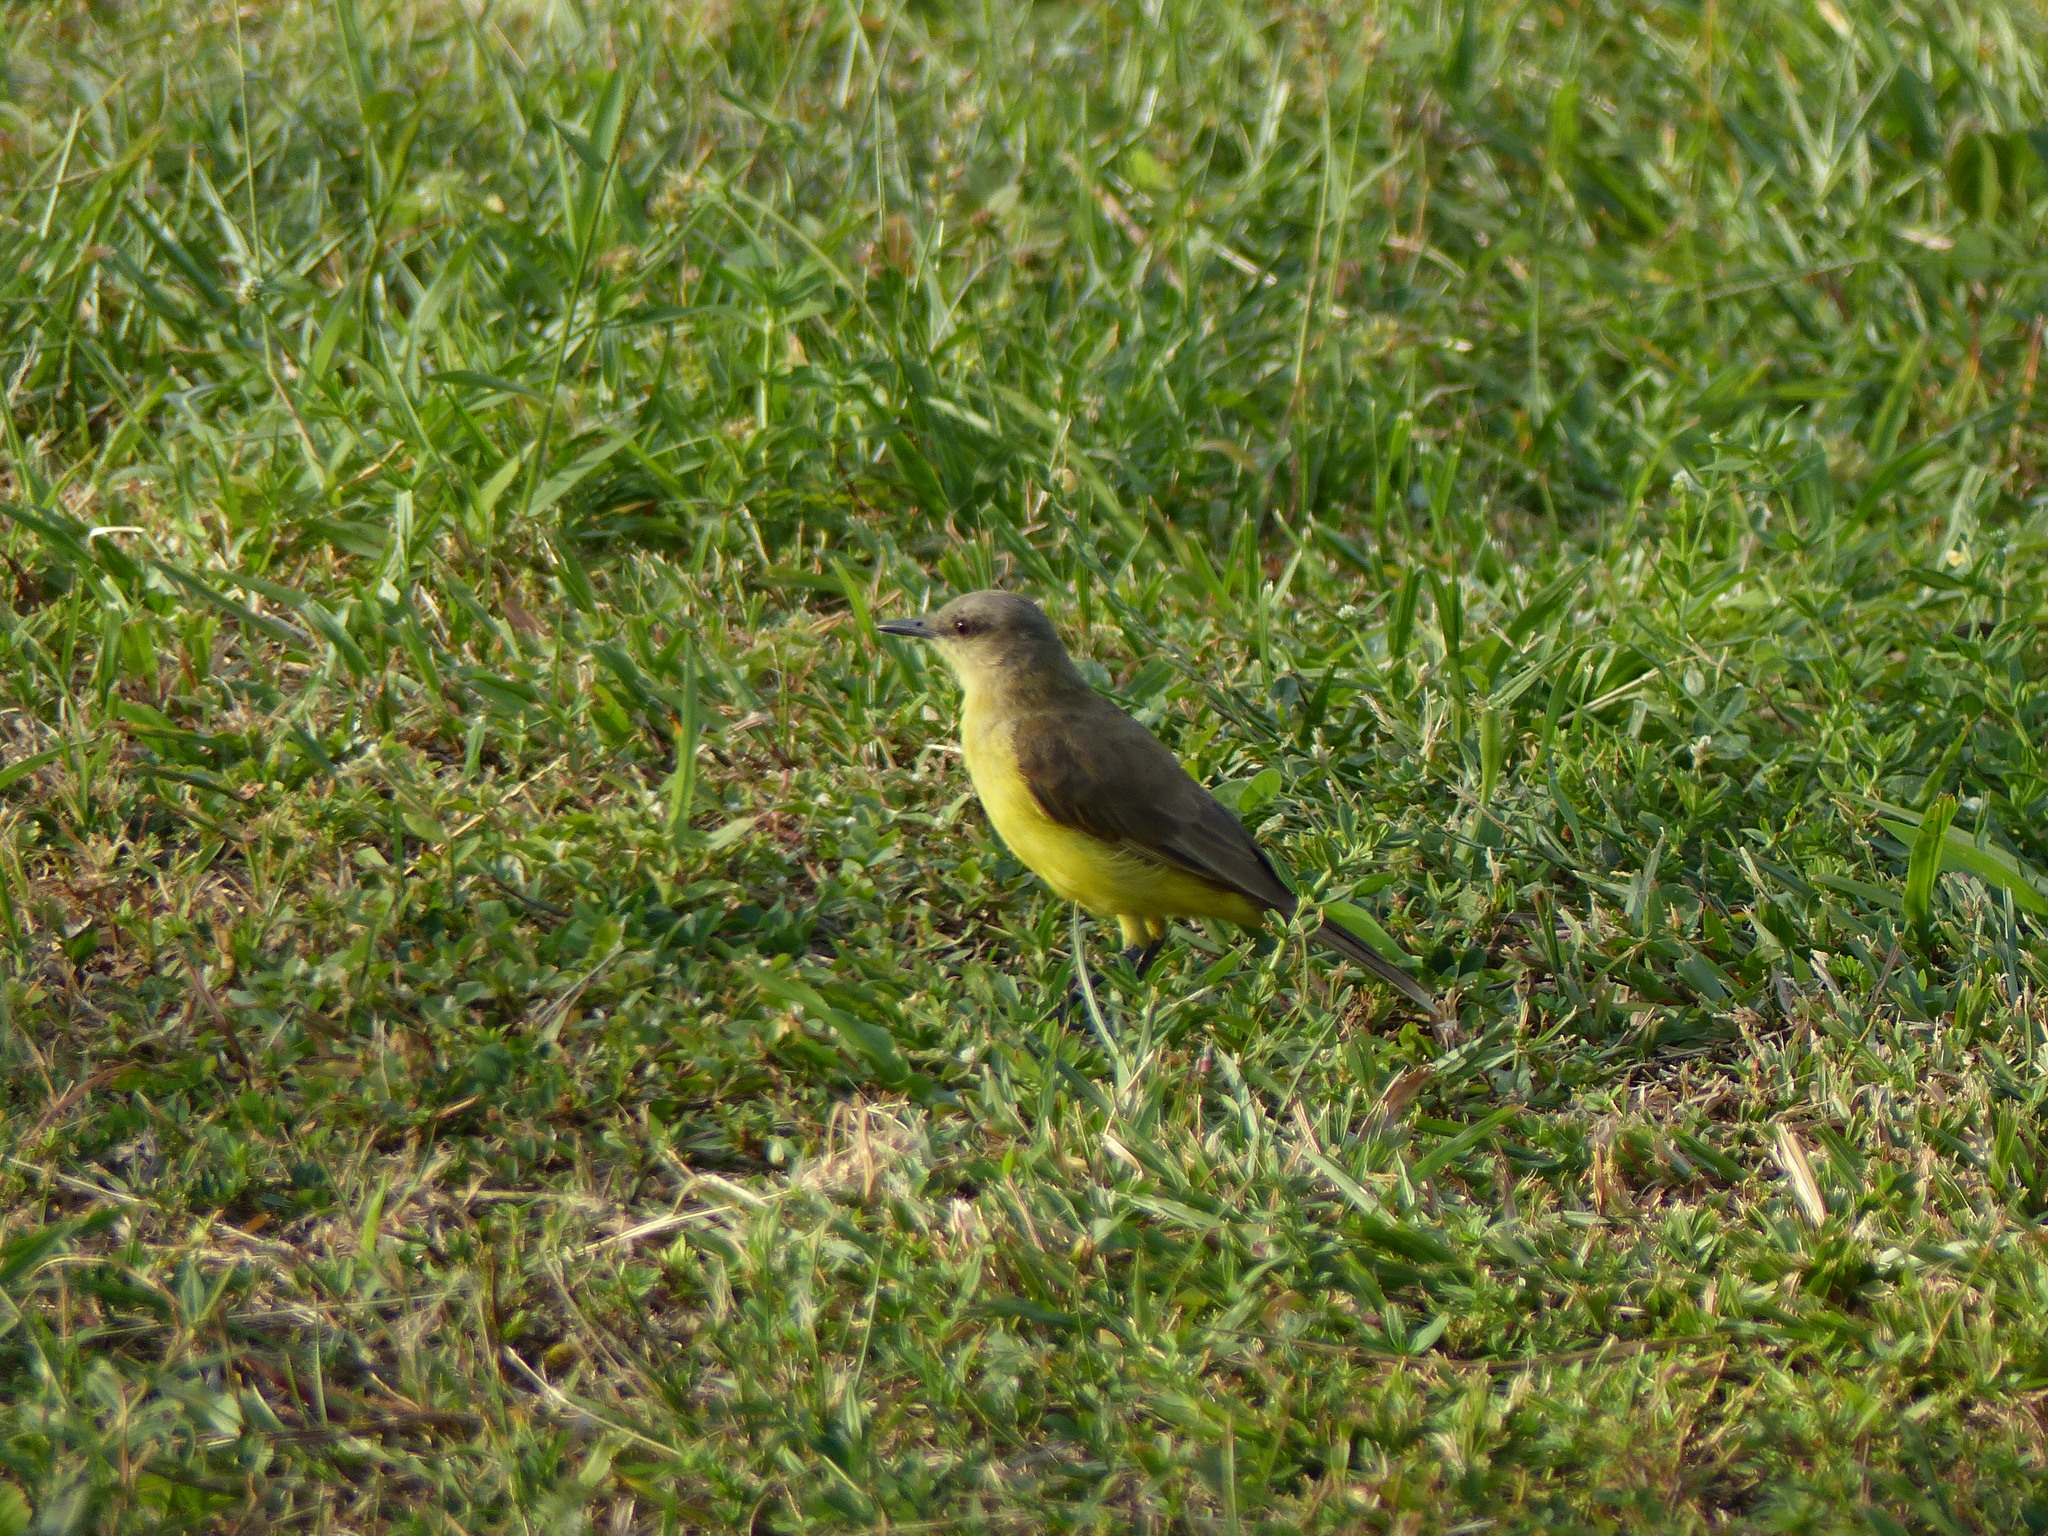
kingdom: Animalia
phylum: Chordata
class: Aves
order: Passeriformes
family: Tyrannidae
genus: Machetornis
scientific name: Machetornis rixosa
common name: Cattle tyrant
